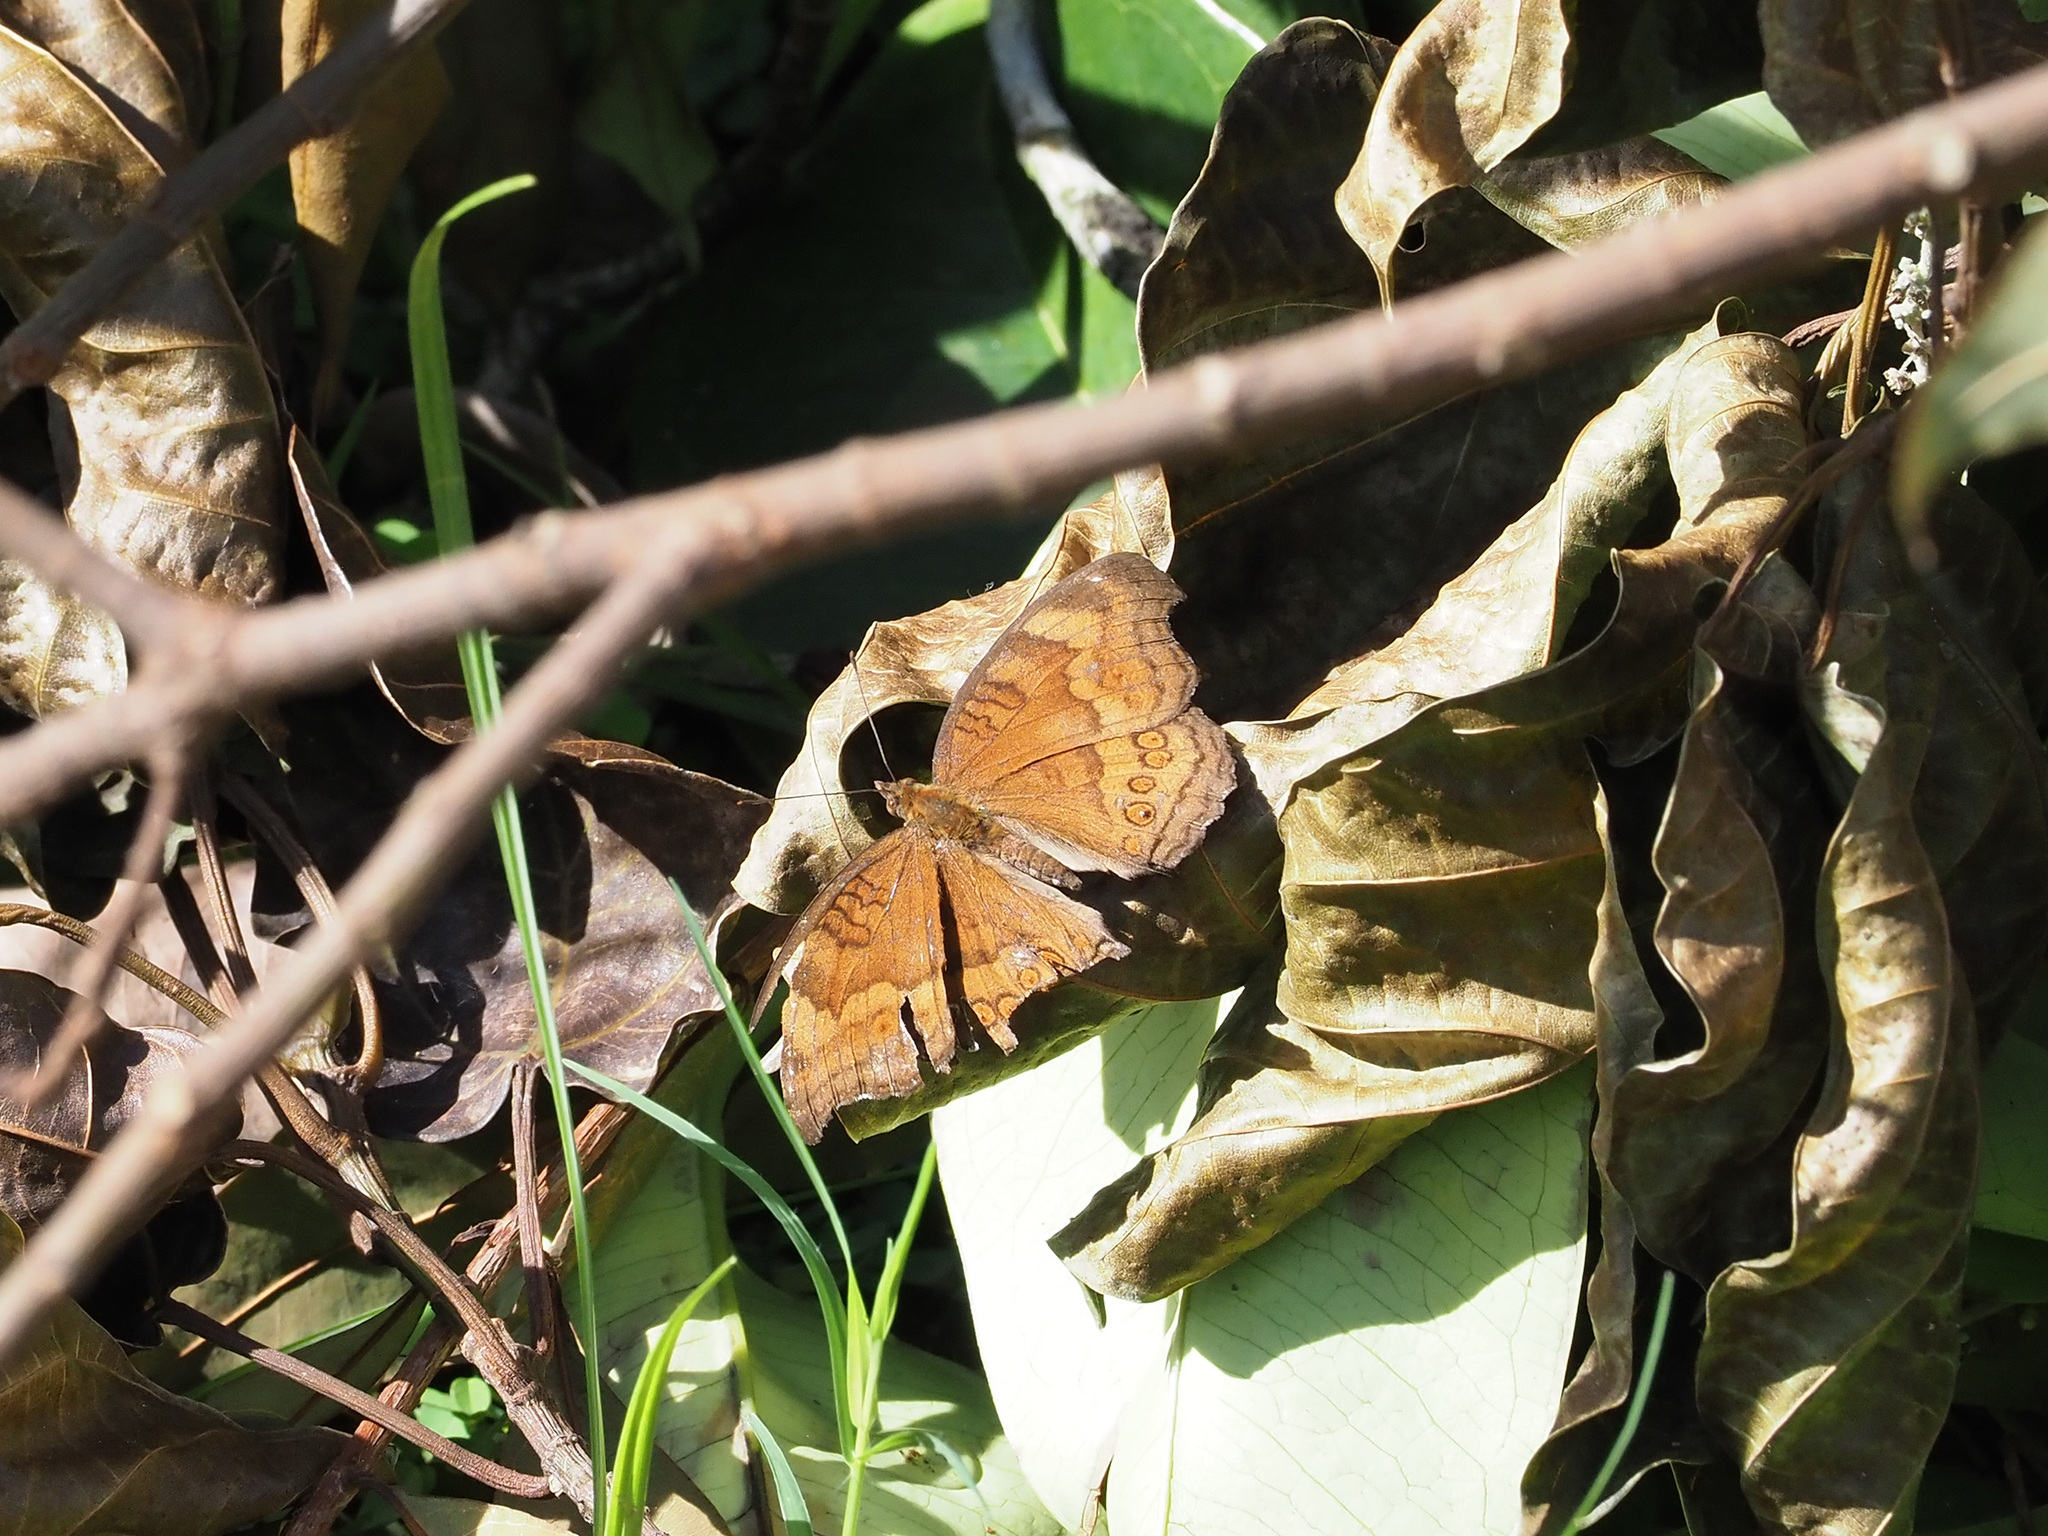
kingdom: Animalia
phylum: Arthropoda
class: Insecta
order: Lepidoptera
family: Nymphalidae
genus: Junonia
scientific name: Junonia hedonia
